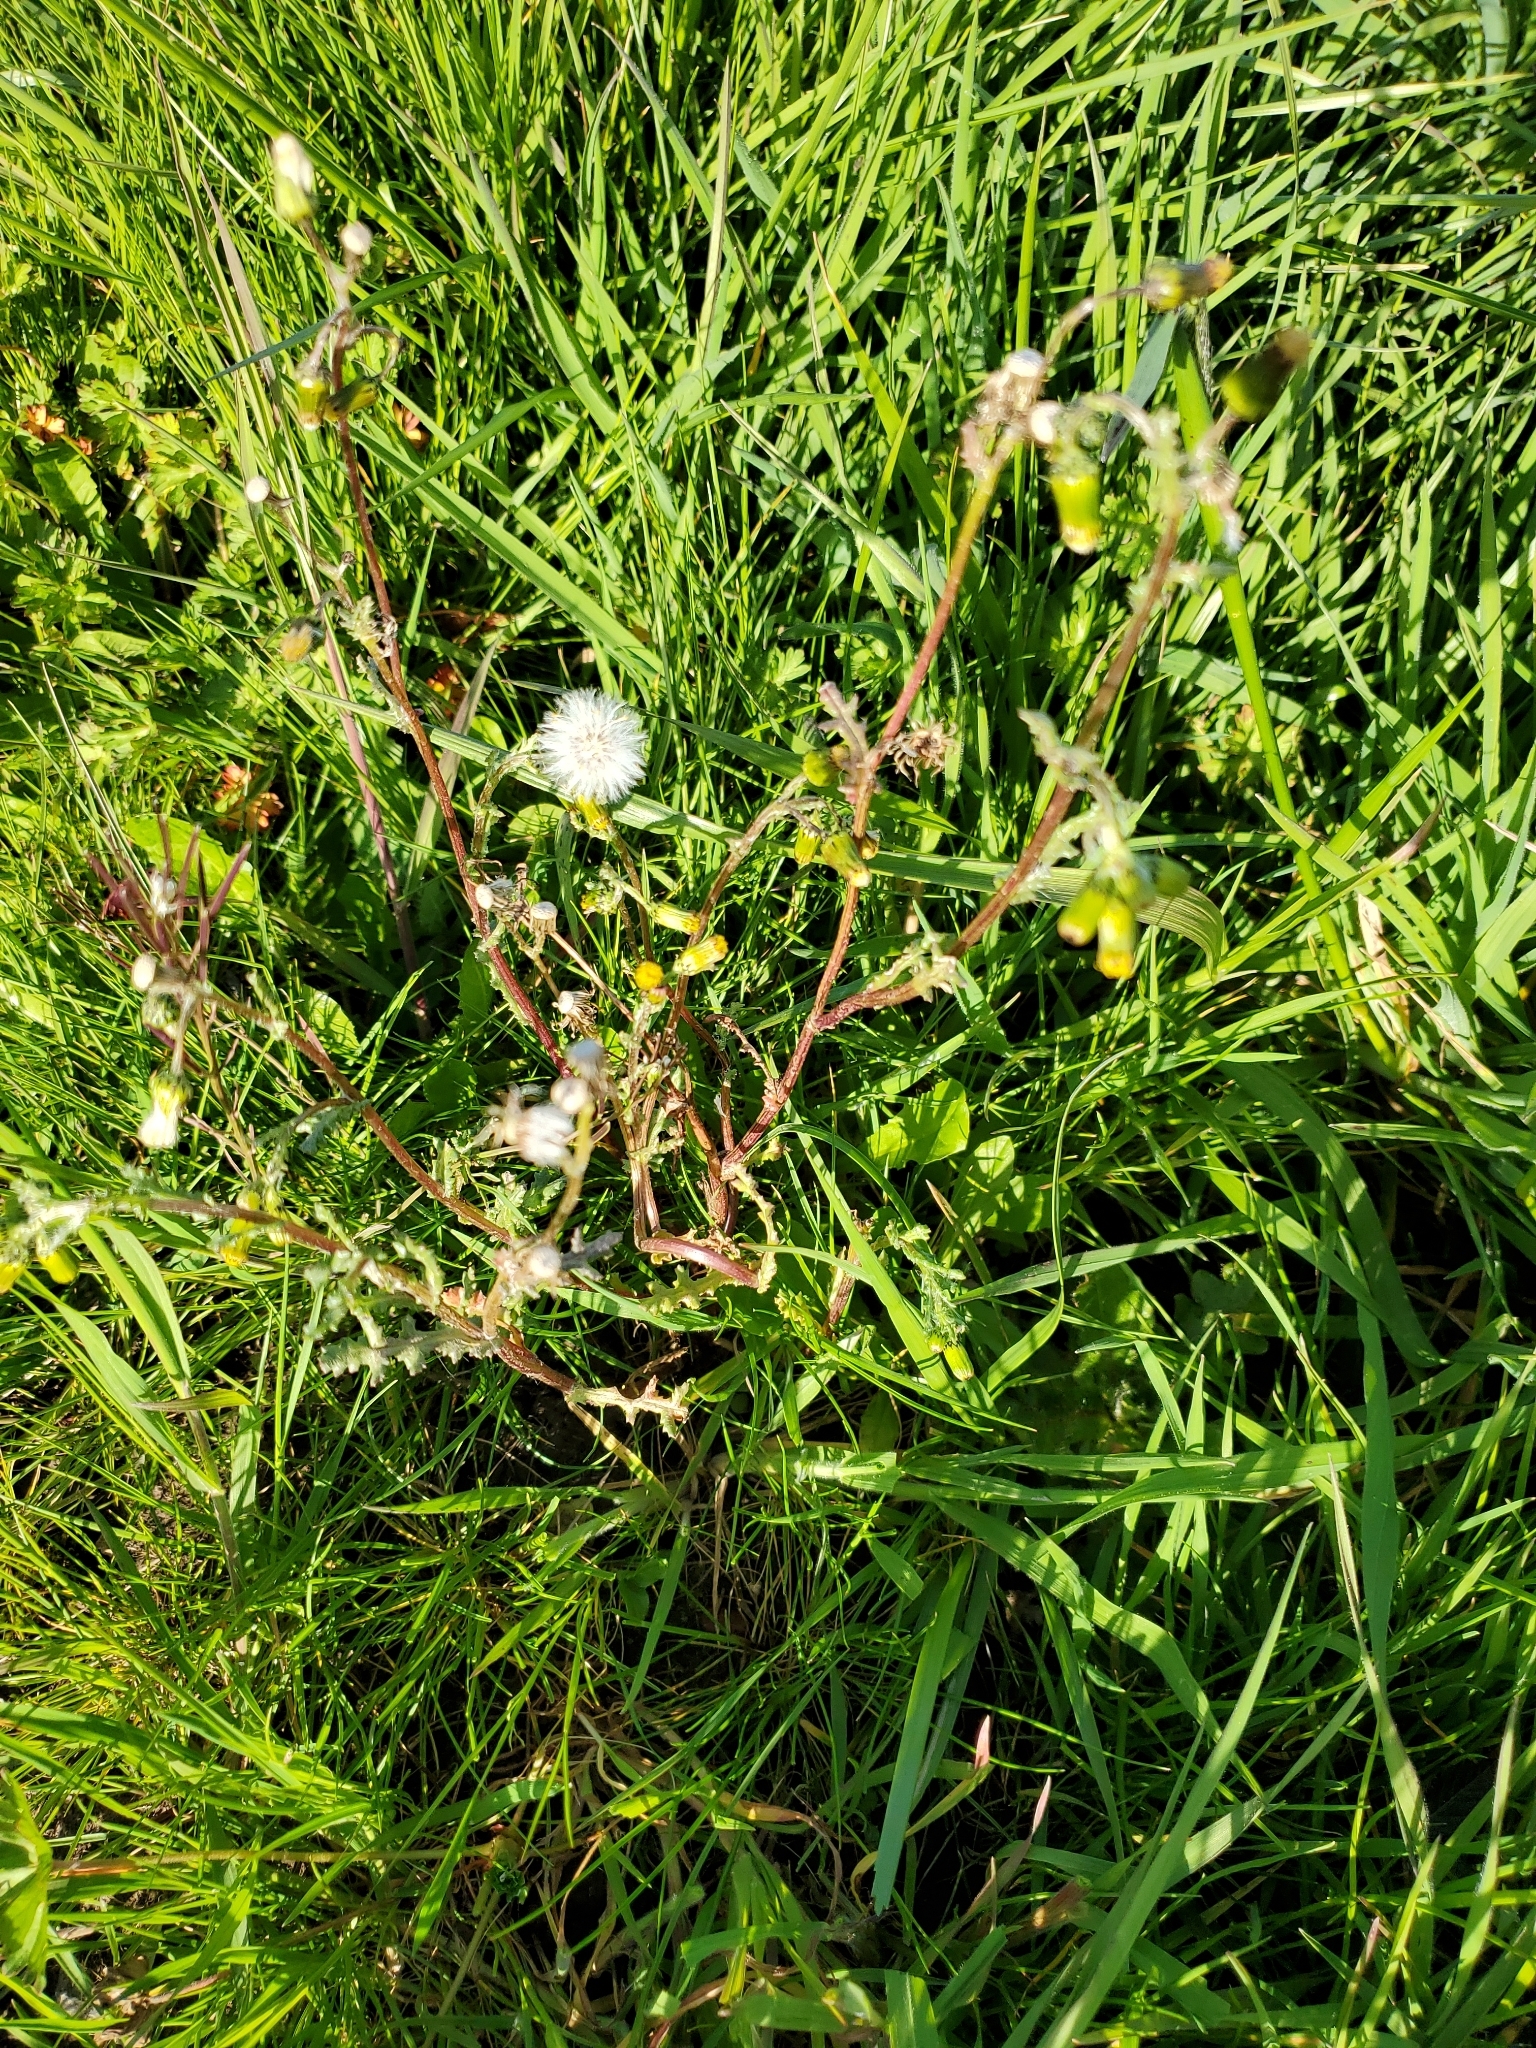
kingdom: Plantae
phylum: Tracheophyta
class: Magnoliopsida
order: Asterales
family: Asteraceae
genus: Senecio
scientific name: Senecio vulgaris
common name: Old-man-in-the-spring
